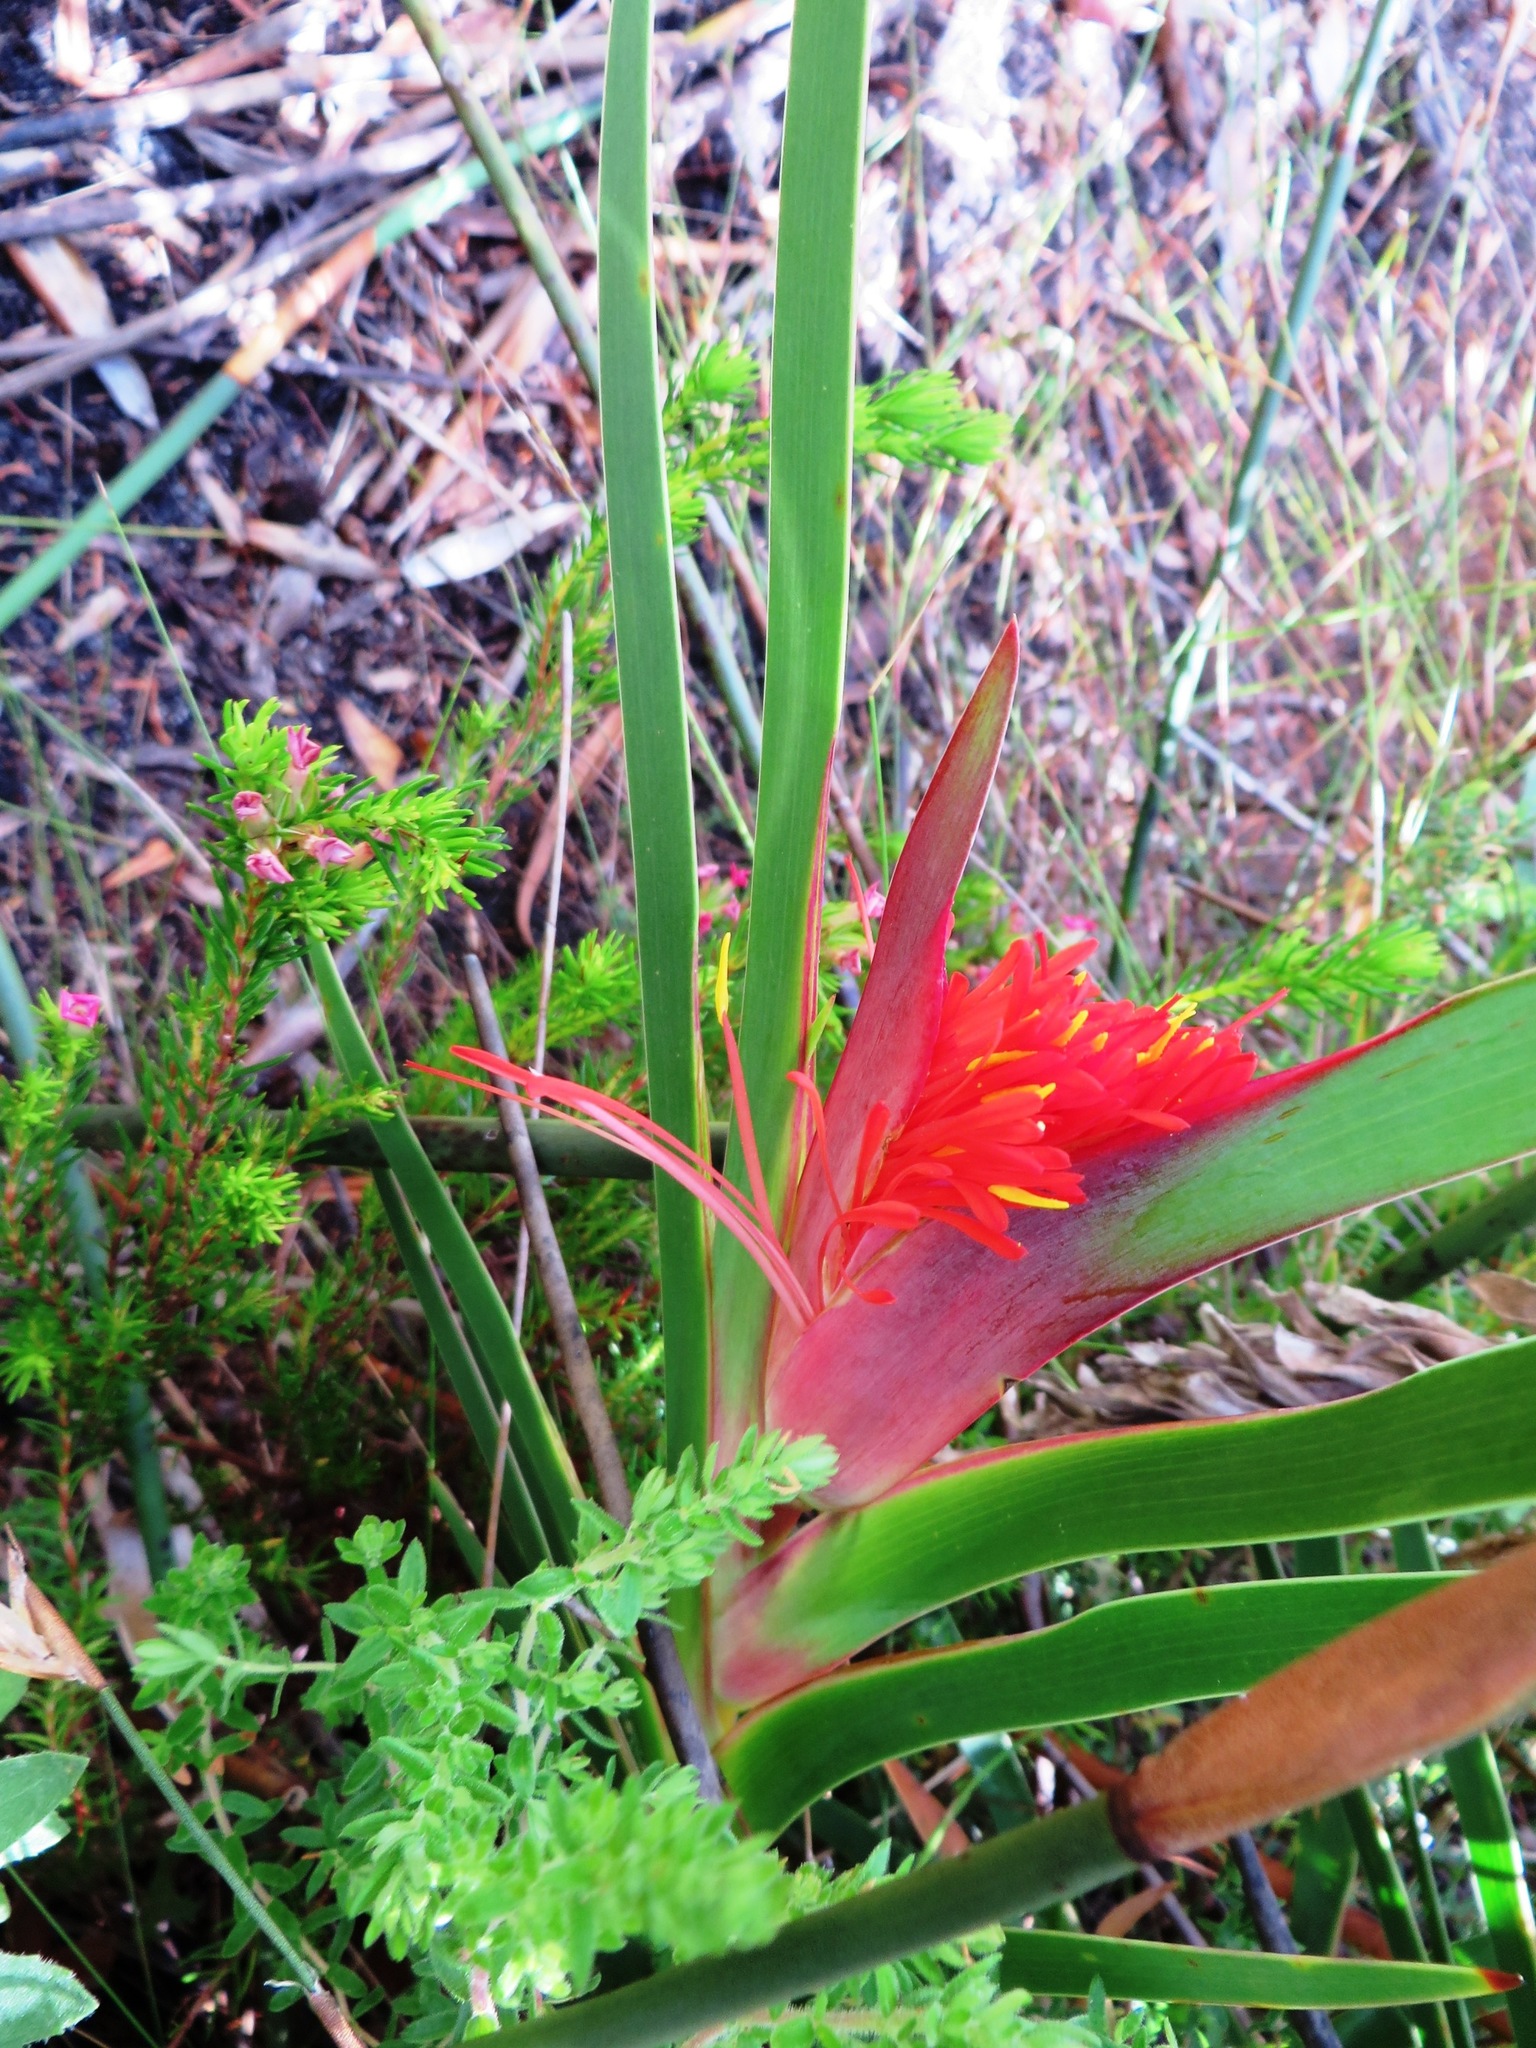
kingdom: Plantae
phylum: Tracheophyta
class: Liliopsida
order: Asparagales
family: Iridaceae
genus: Klattia
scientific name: Klattia stokoei
